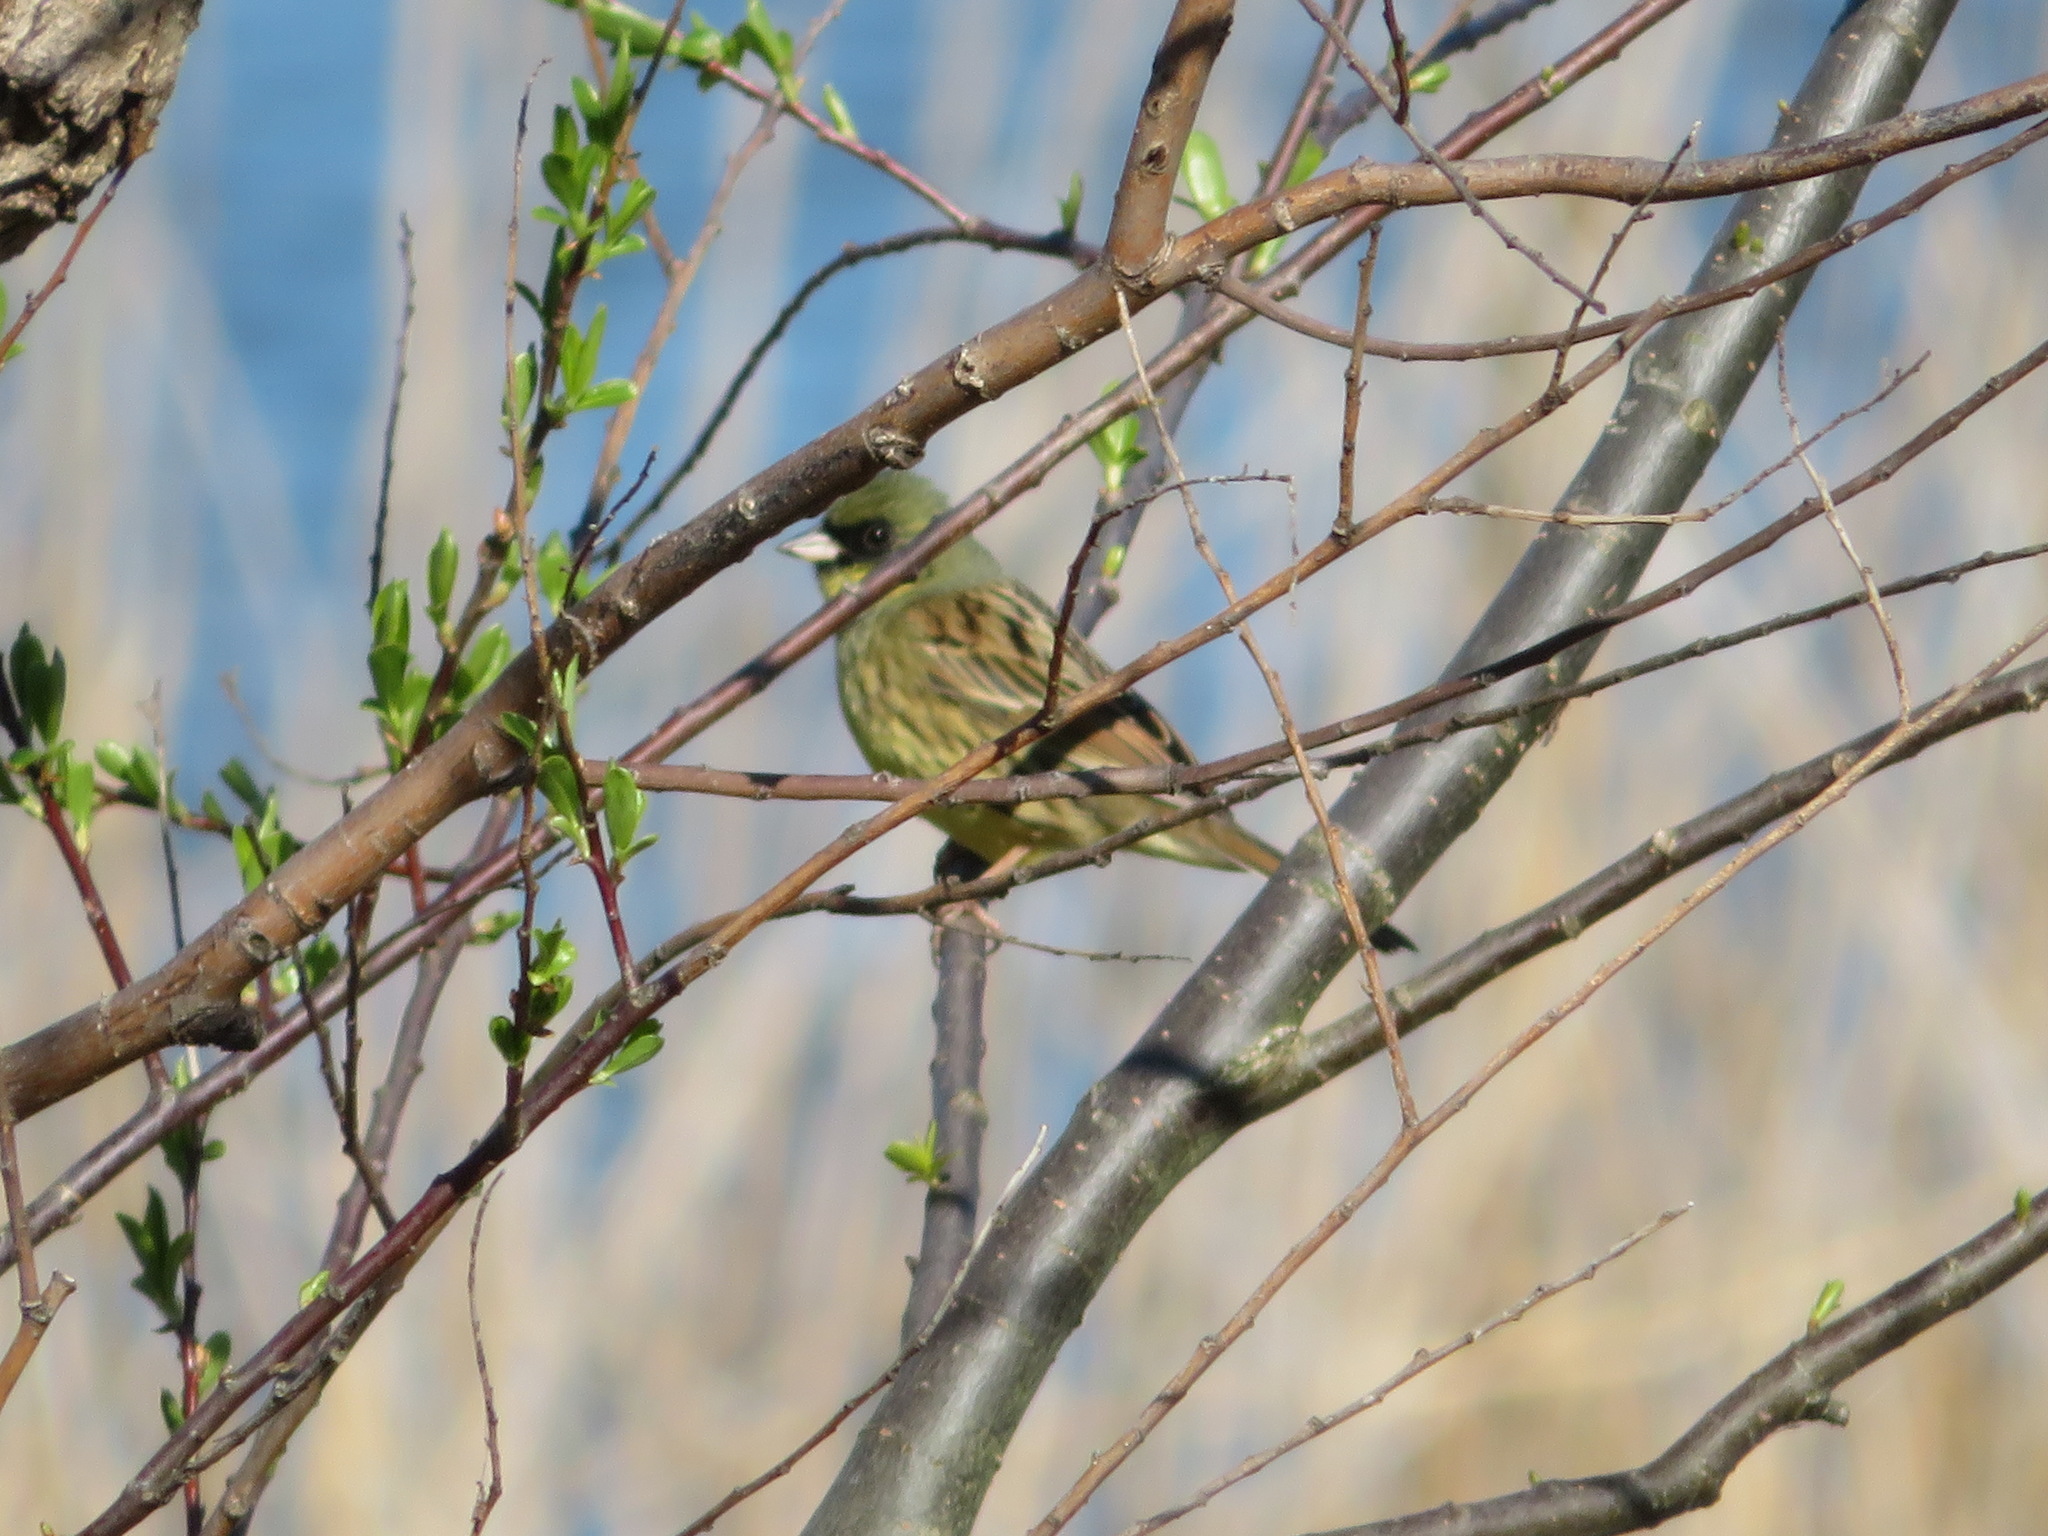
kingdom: Animalia
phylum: Chordata
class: Aves
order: Passeriformes
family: Emberizidae
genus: Emberiza
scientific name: Emberiza personata
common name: Masked bunting
